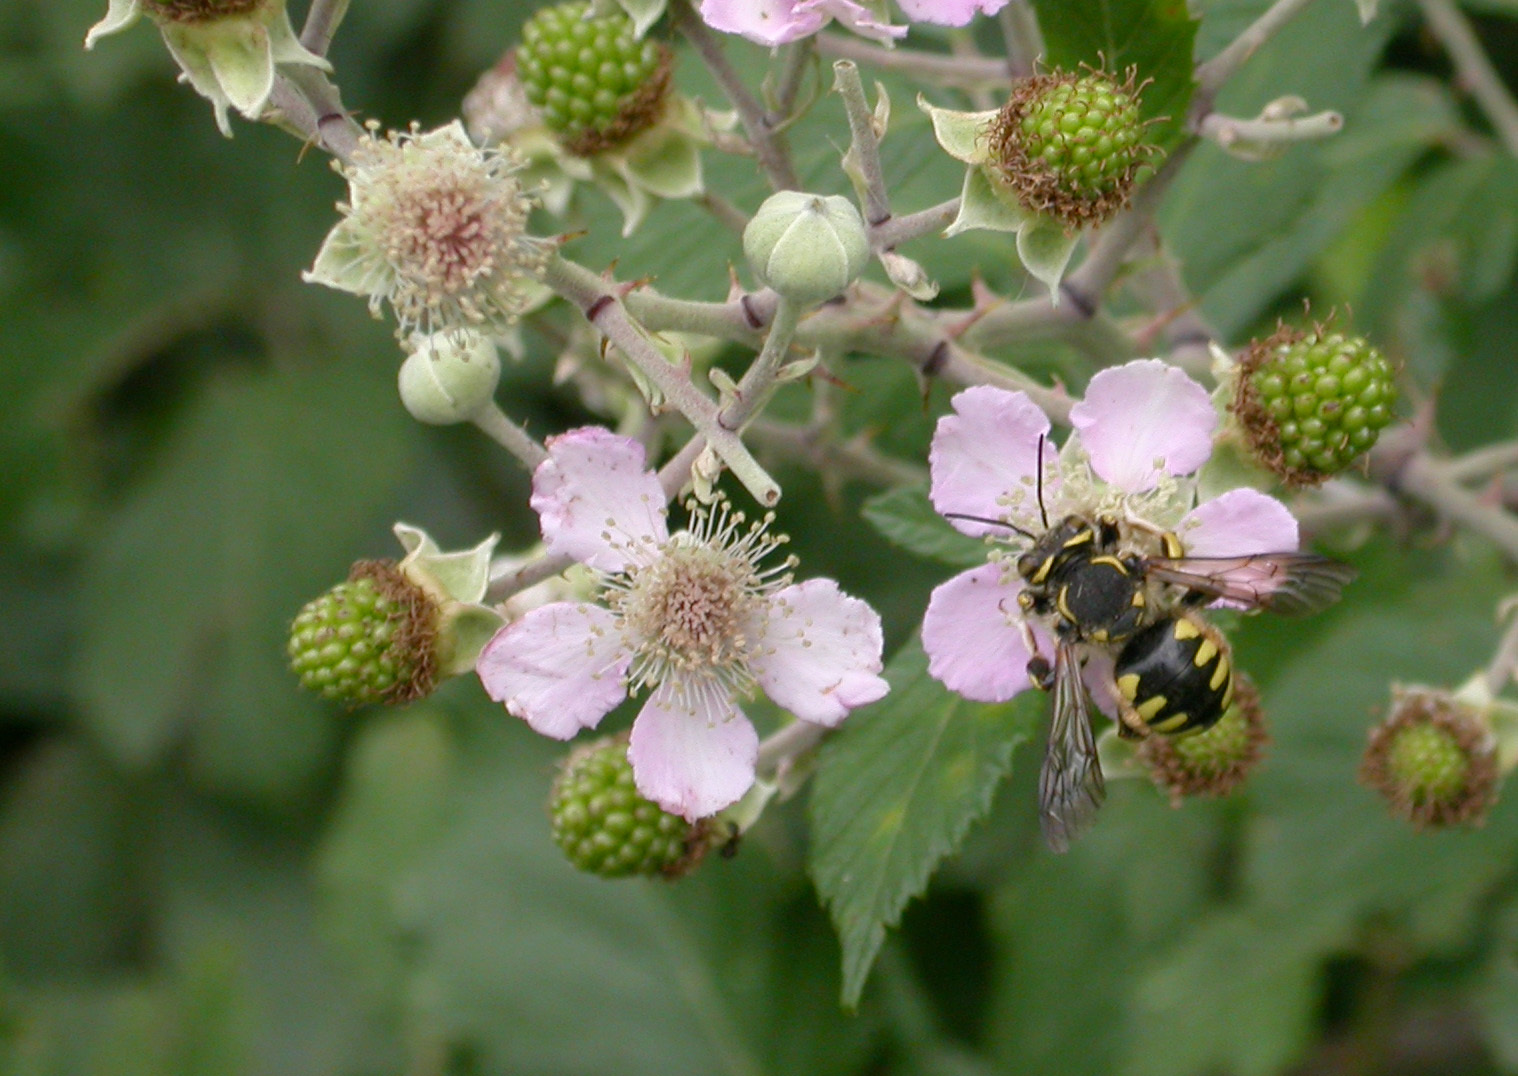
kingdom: Animalia
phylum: Arthropoda
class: Insecta
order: Hymenoptera
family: Megachilidae
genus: Anthidium
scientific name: Anthidium florentinum
